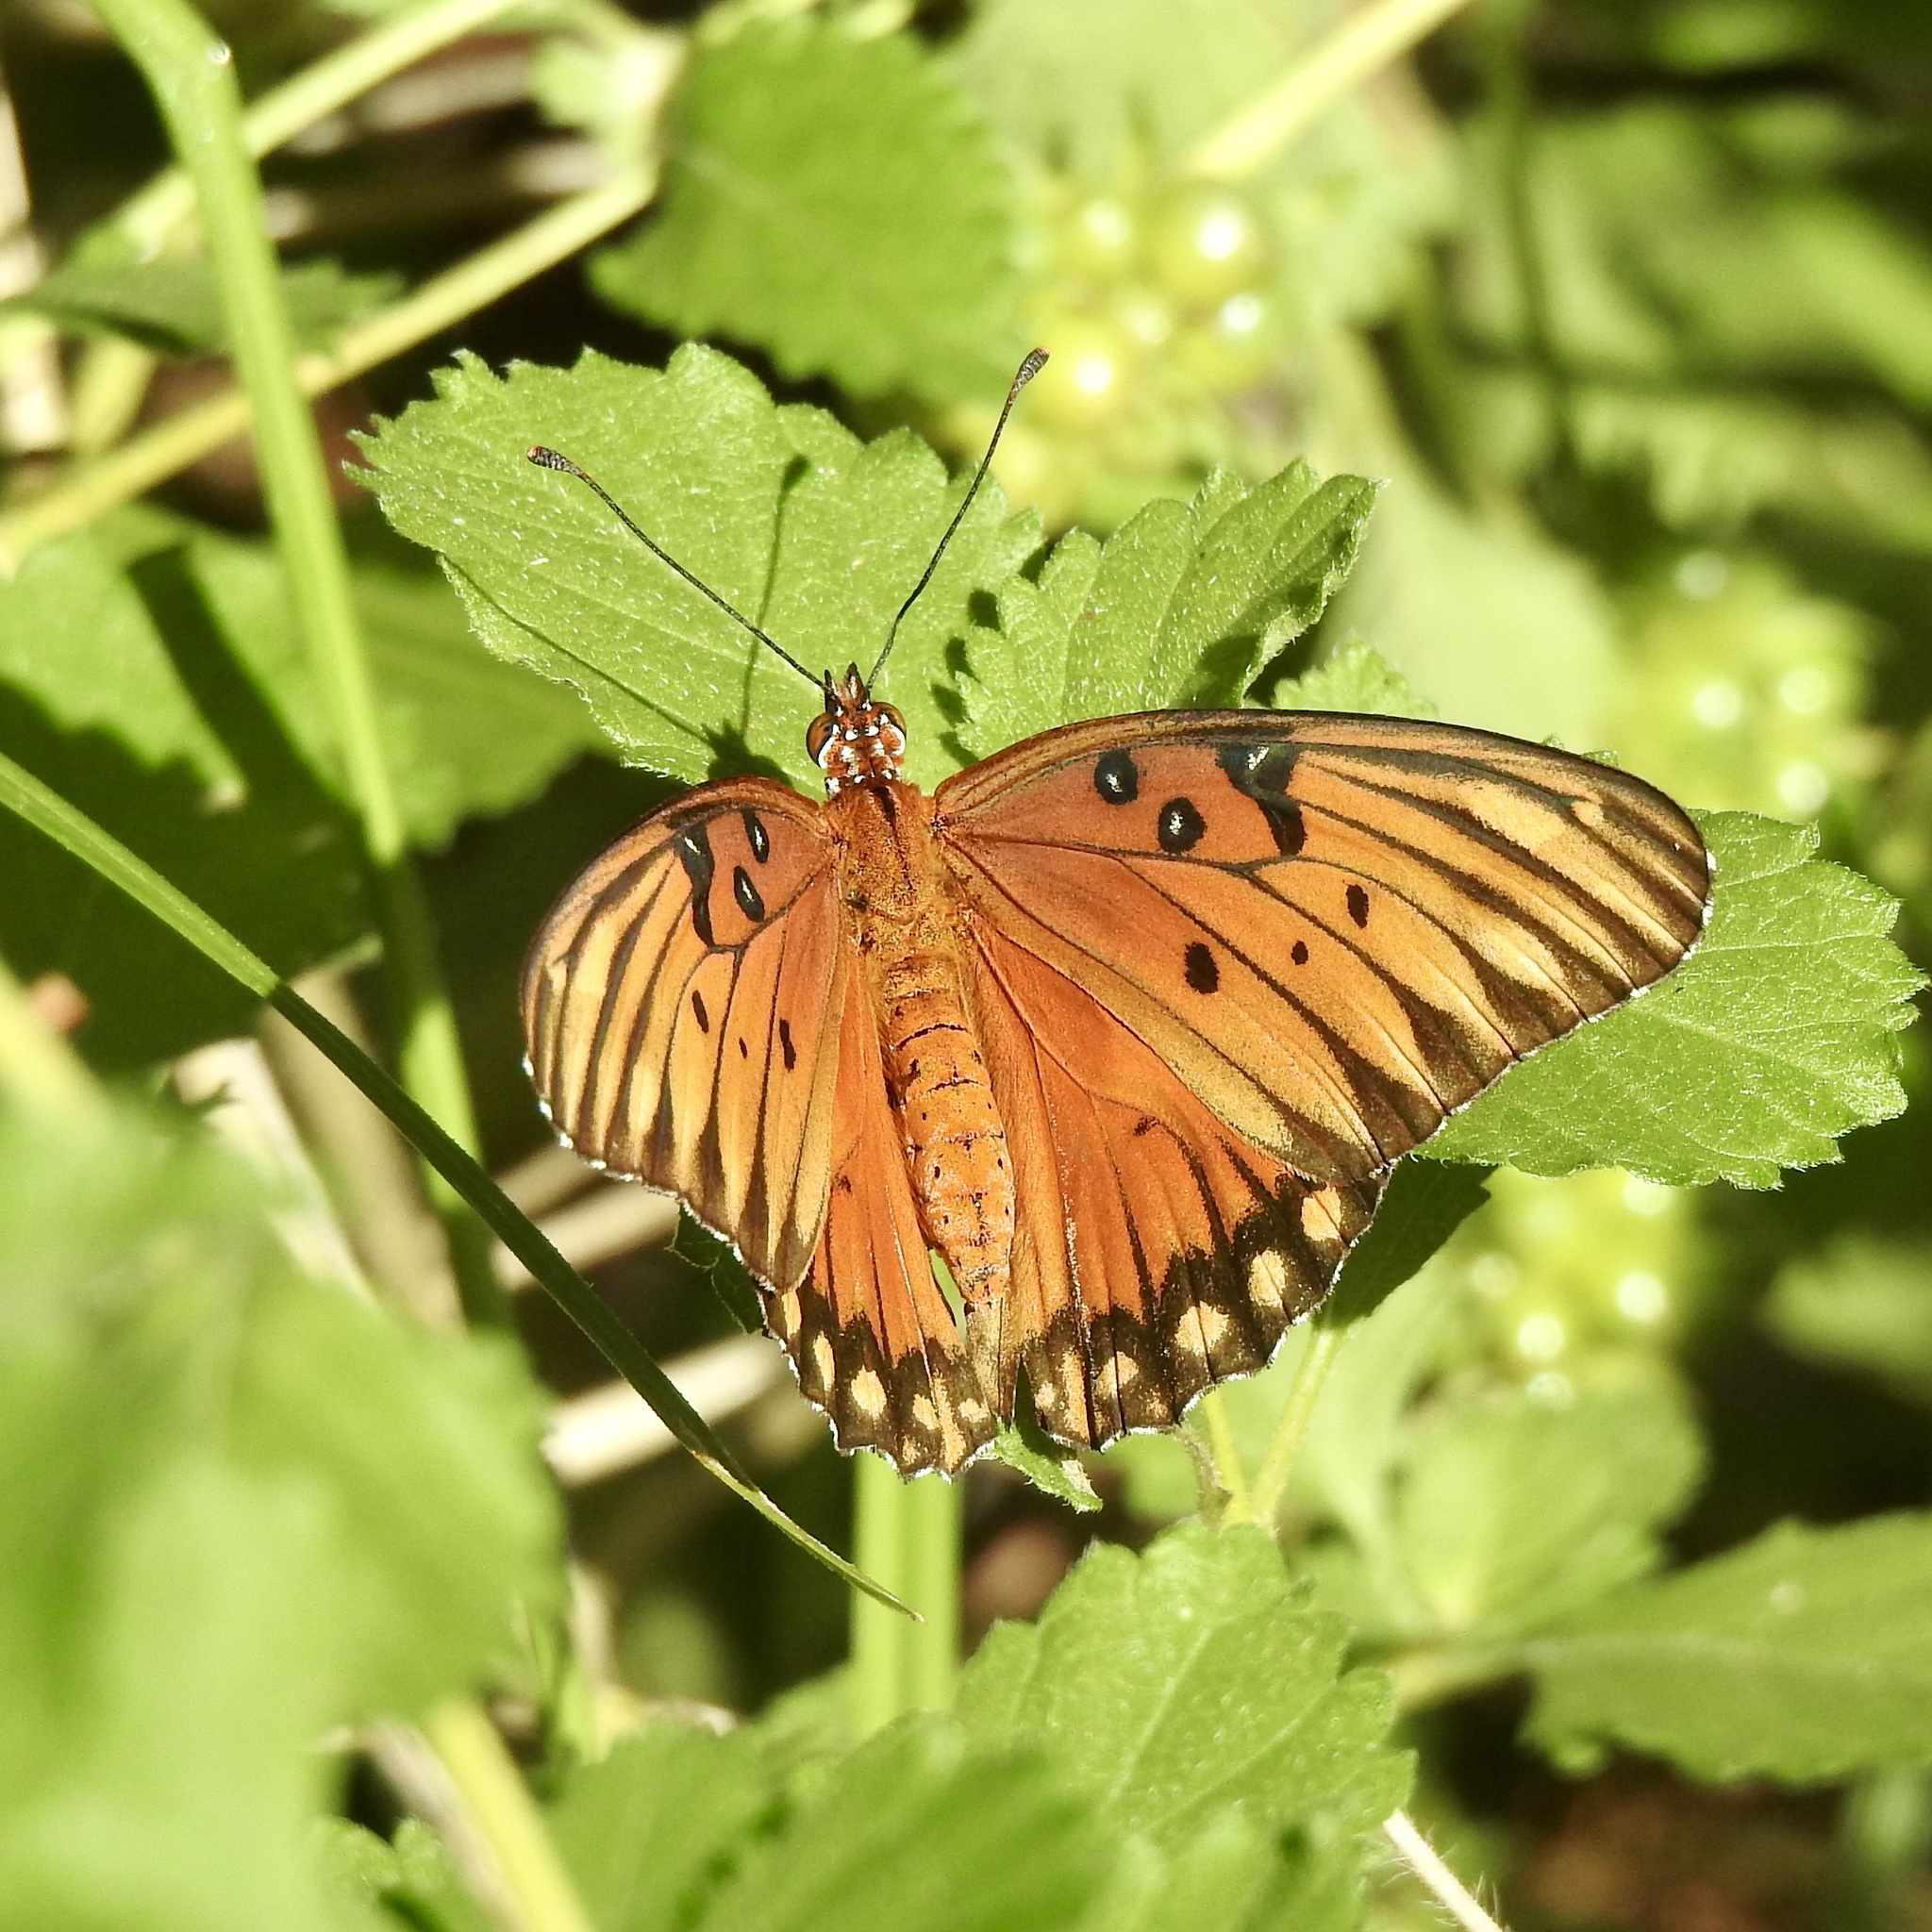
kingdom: Animalia
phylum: Arthropoda
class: Insecta
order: Lepidoptera
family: Nymphalidae
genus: Dione
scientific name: Dione vanillae
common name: Gulf fritillary
